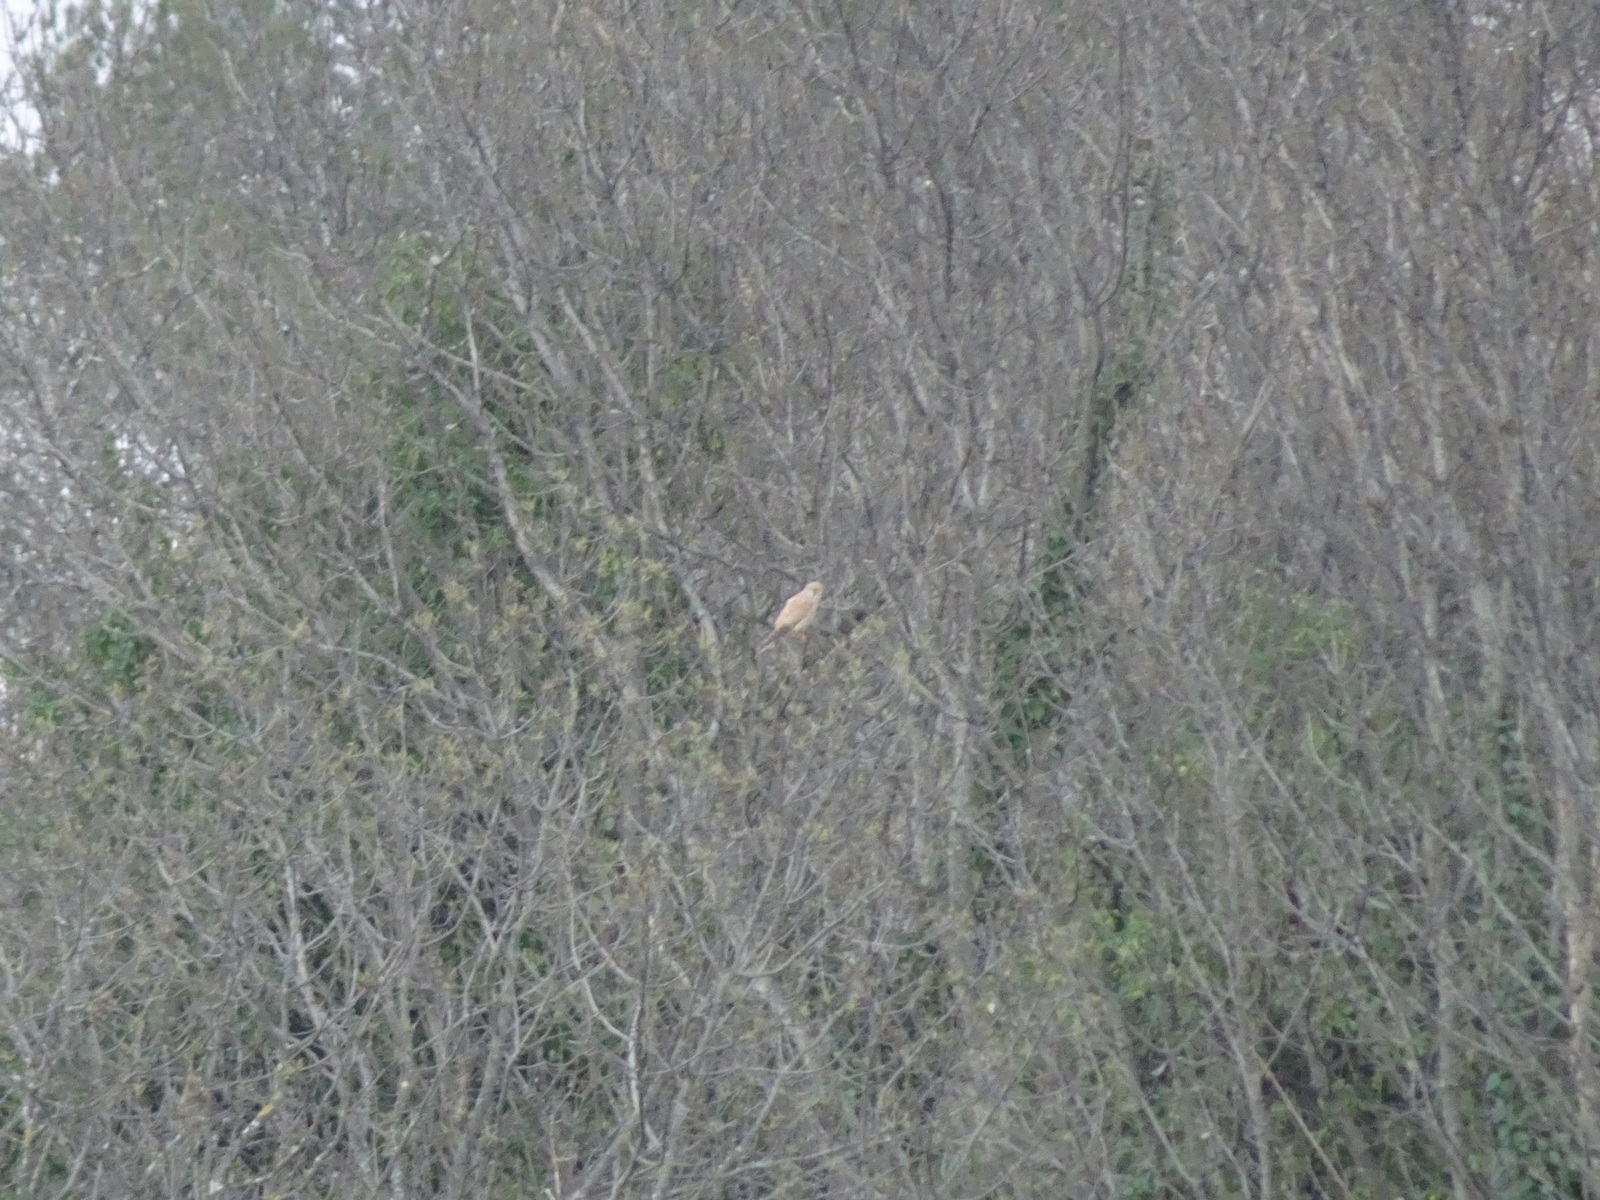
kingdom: Animalia
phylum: Chordata
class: Aves
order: Falconiformes
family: Falconidae
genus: Falco
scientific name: Falco tinnunculus
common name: Common kestrel
